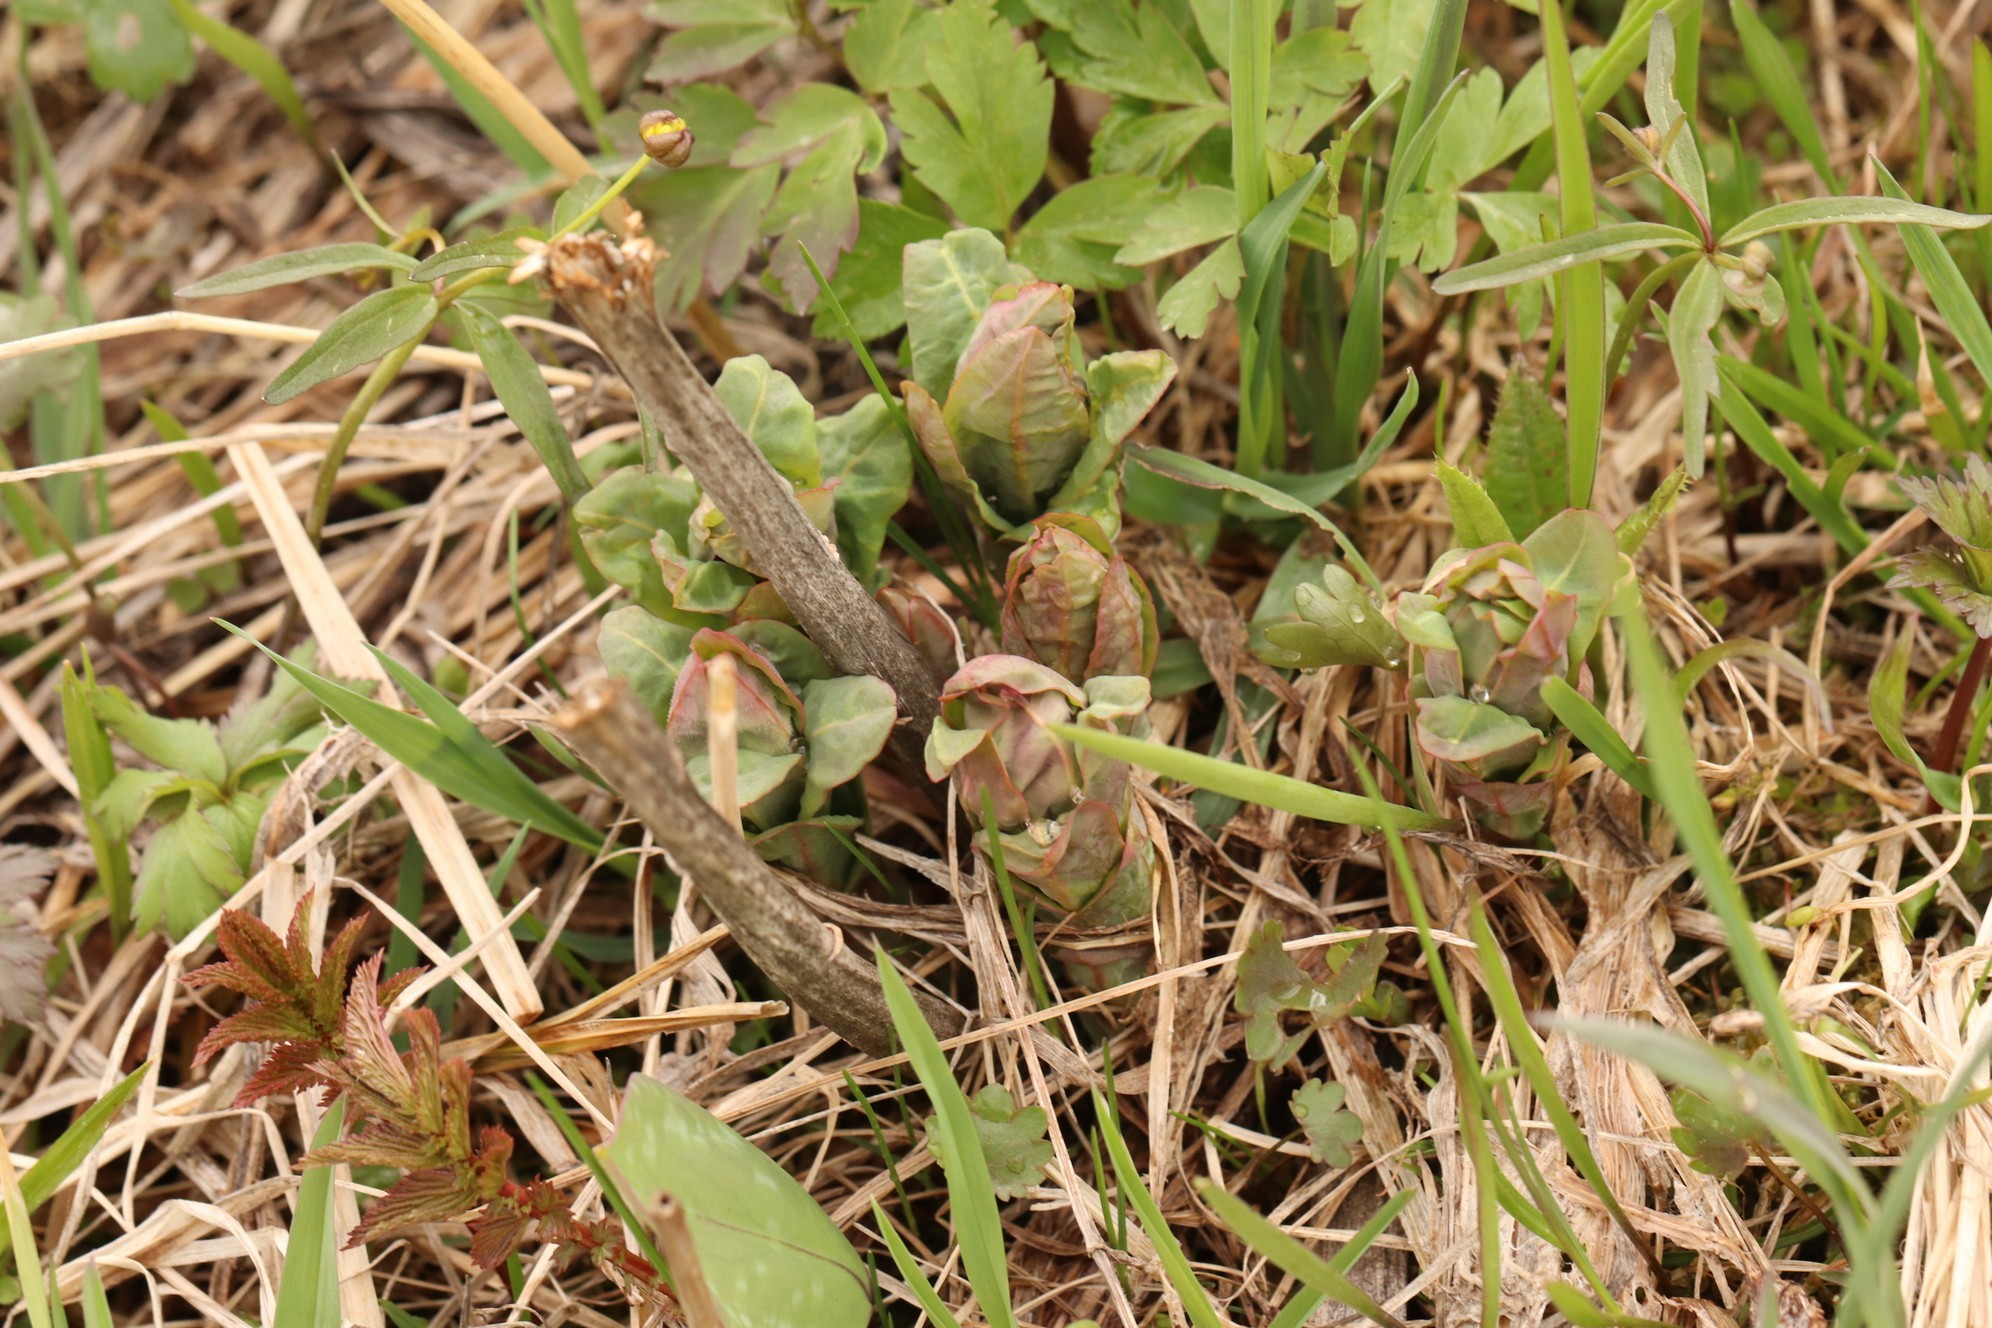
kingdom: Plantae
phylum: Tracheophyta
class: Magnoliopsida
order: Malpighiales
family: Euphorbiaceae
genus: Euphorbia
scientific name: Euphorbia pilosa
